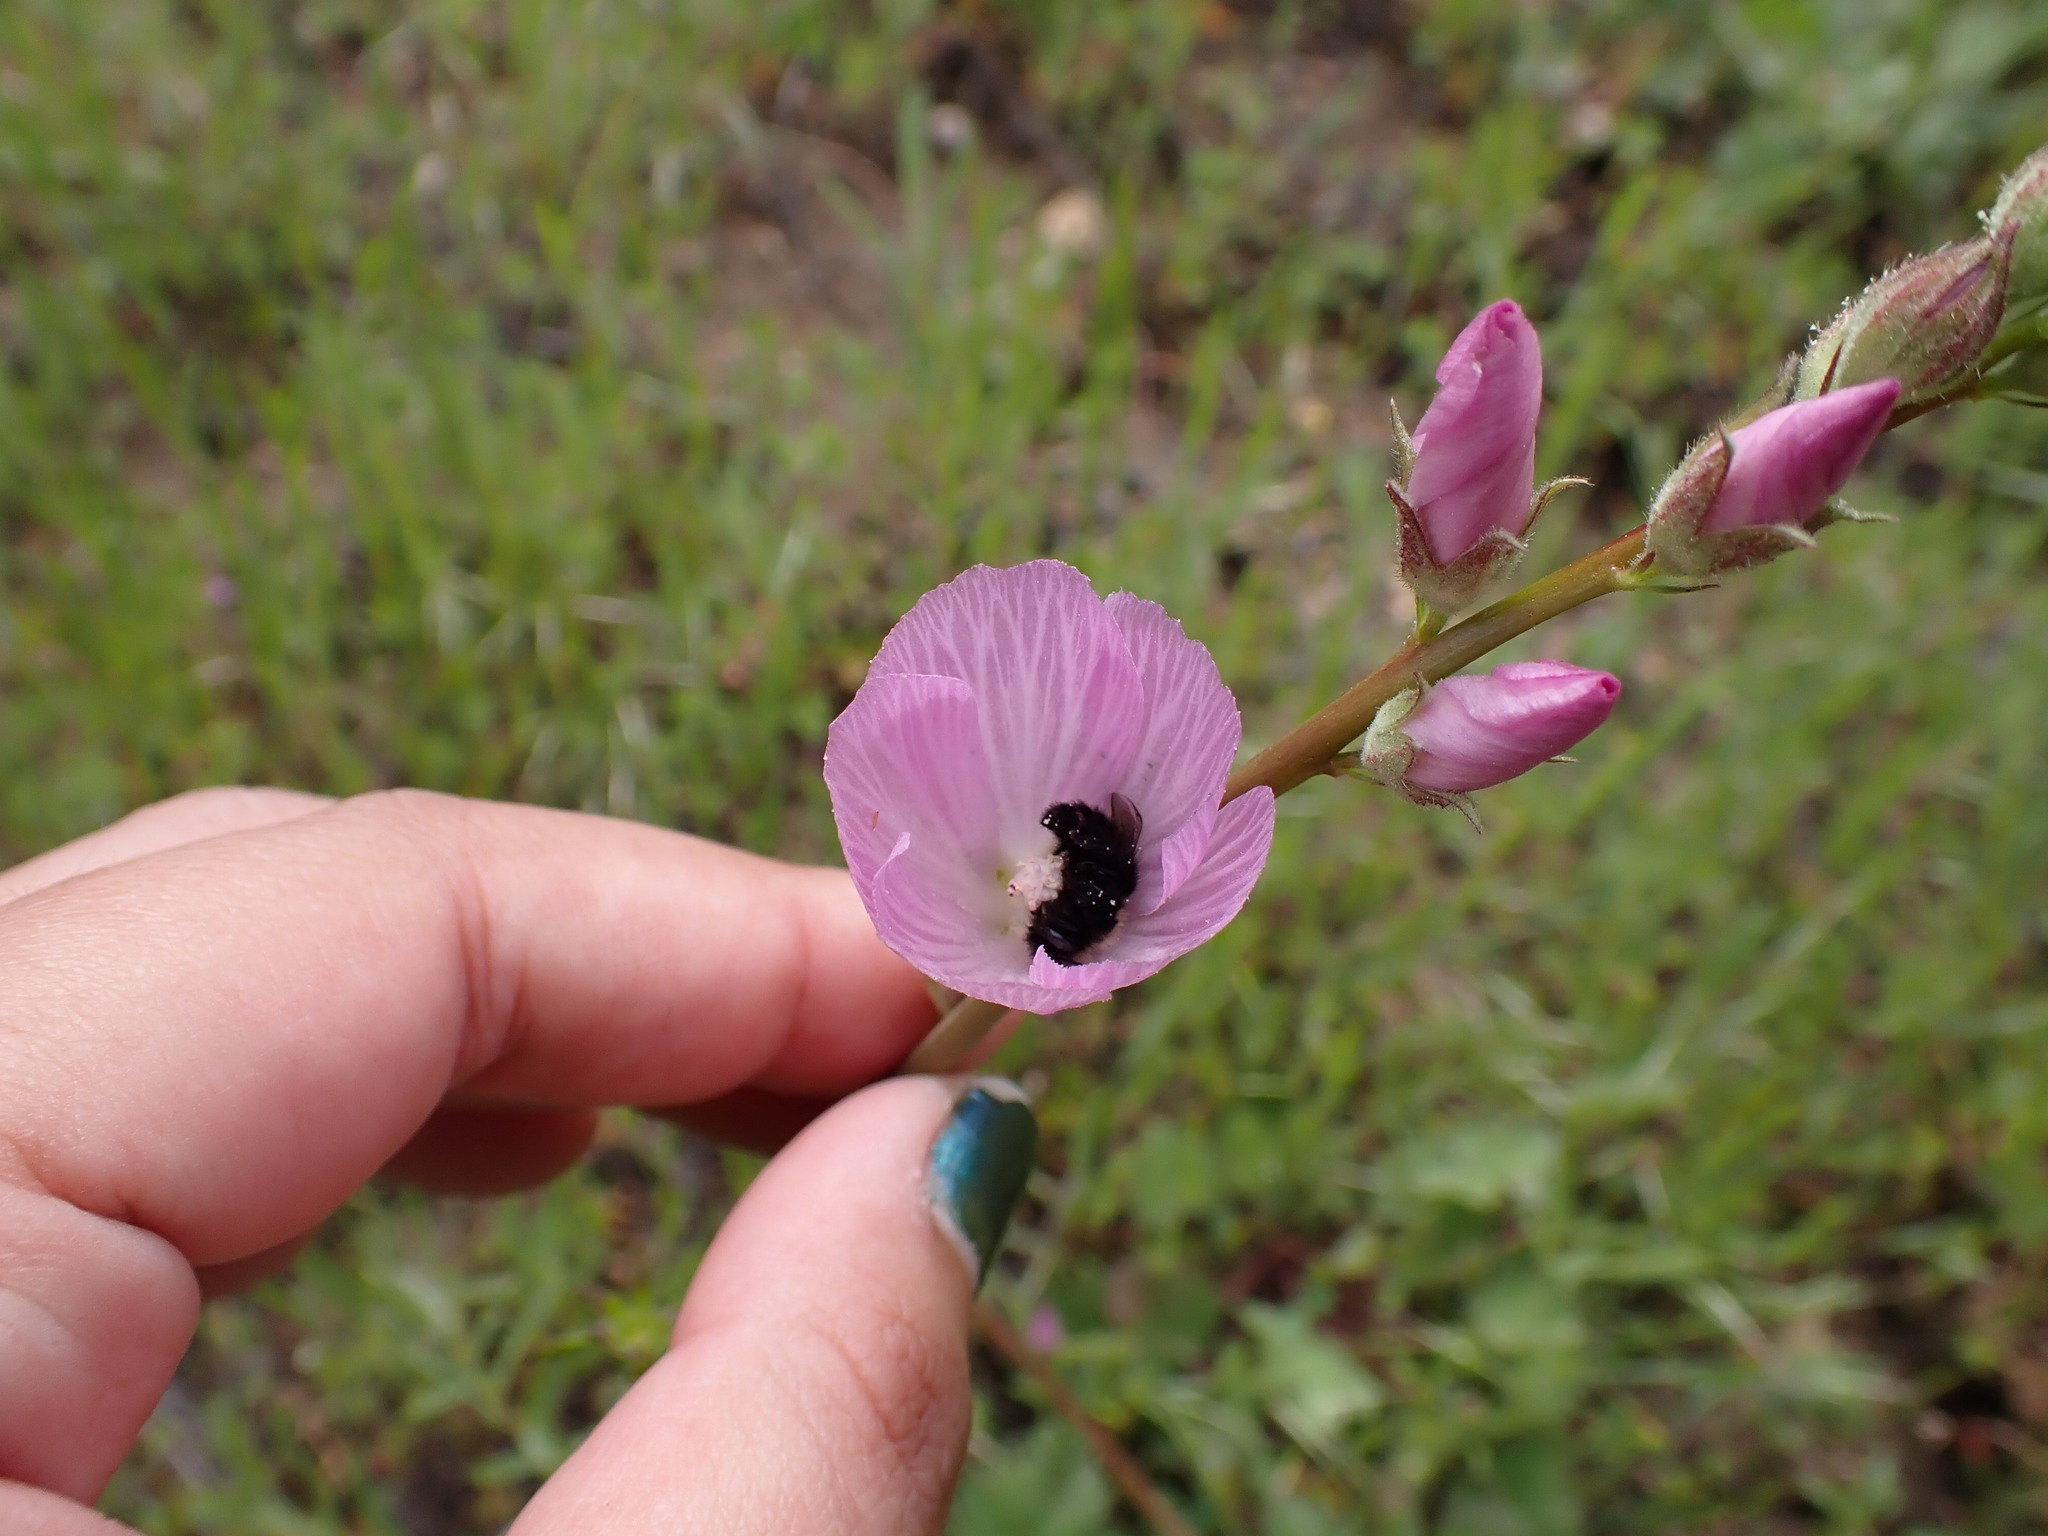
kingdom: Animalia
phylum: Arthropoda
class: Insecta
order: Hymenoptera
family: Apidae
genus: Diadasia
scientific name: Diadasia nigrifrons
